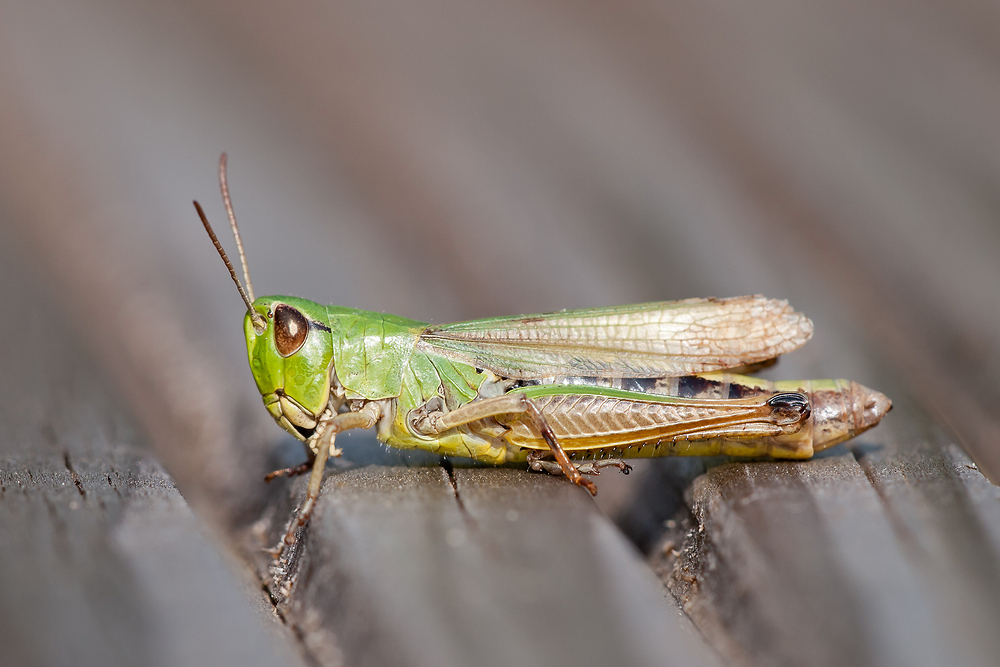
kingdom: Animalia
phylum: Arthropoda
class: Insecta
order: Orthoptera
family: Acrididae
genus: Pseudochorthippus
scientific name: Pseudochorthippus parallelus
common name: Meadow grasshopper
